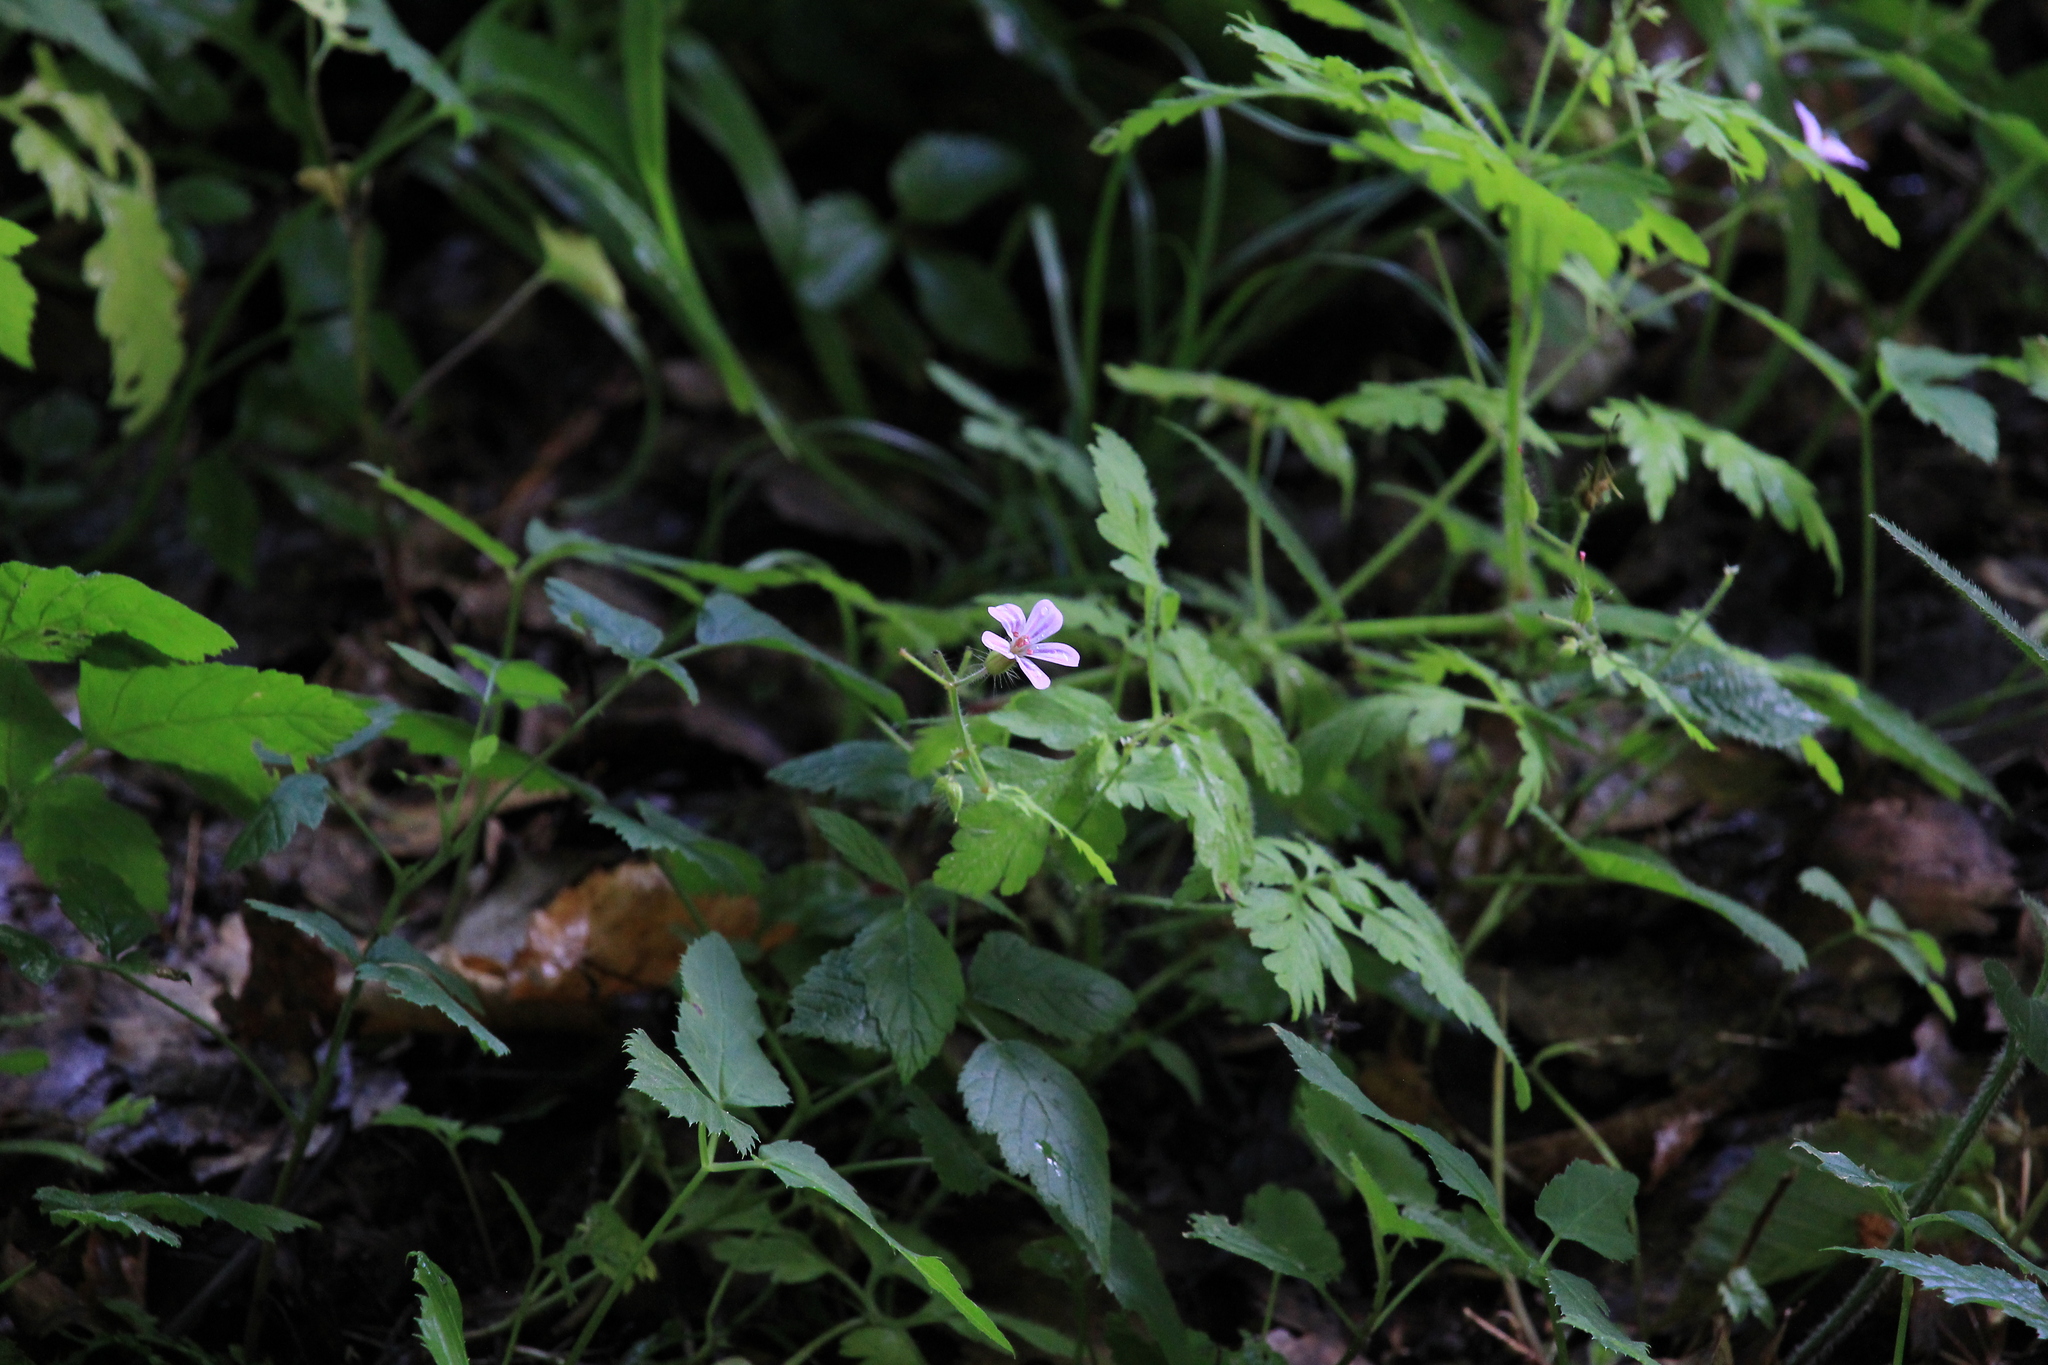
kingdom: Plantae
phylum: Tracheophyta
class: Magnoliopsida
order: Geraniales
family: Geraniaceae
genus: Geranium
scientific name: Geranium robertianum
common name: Herb-robert
